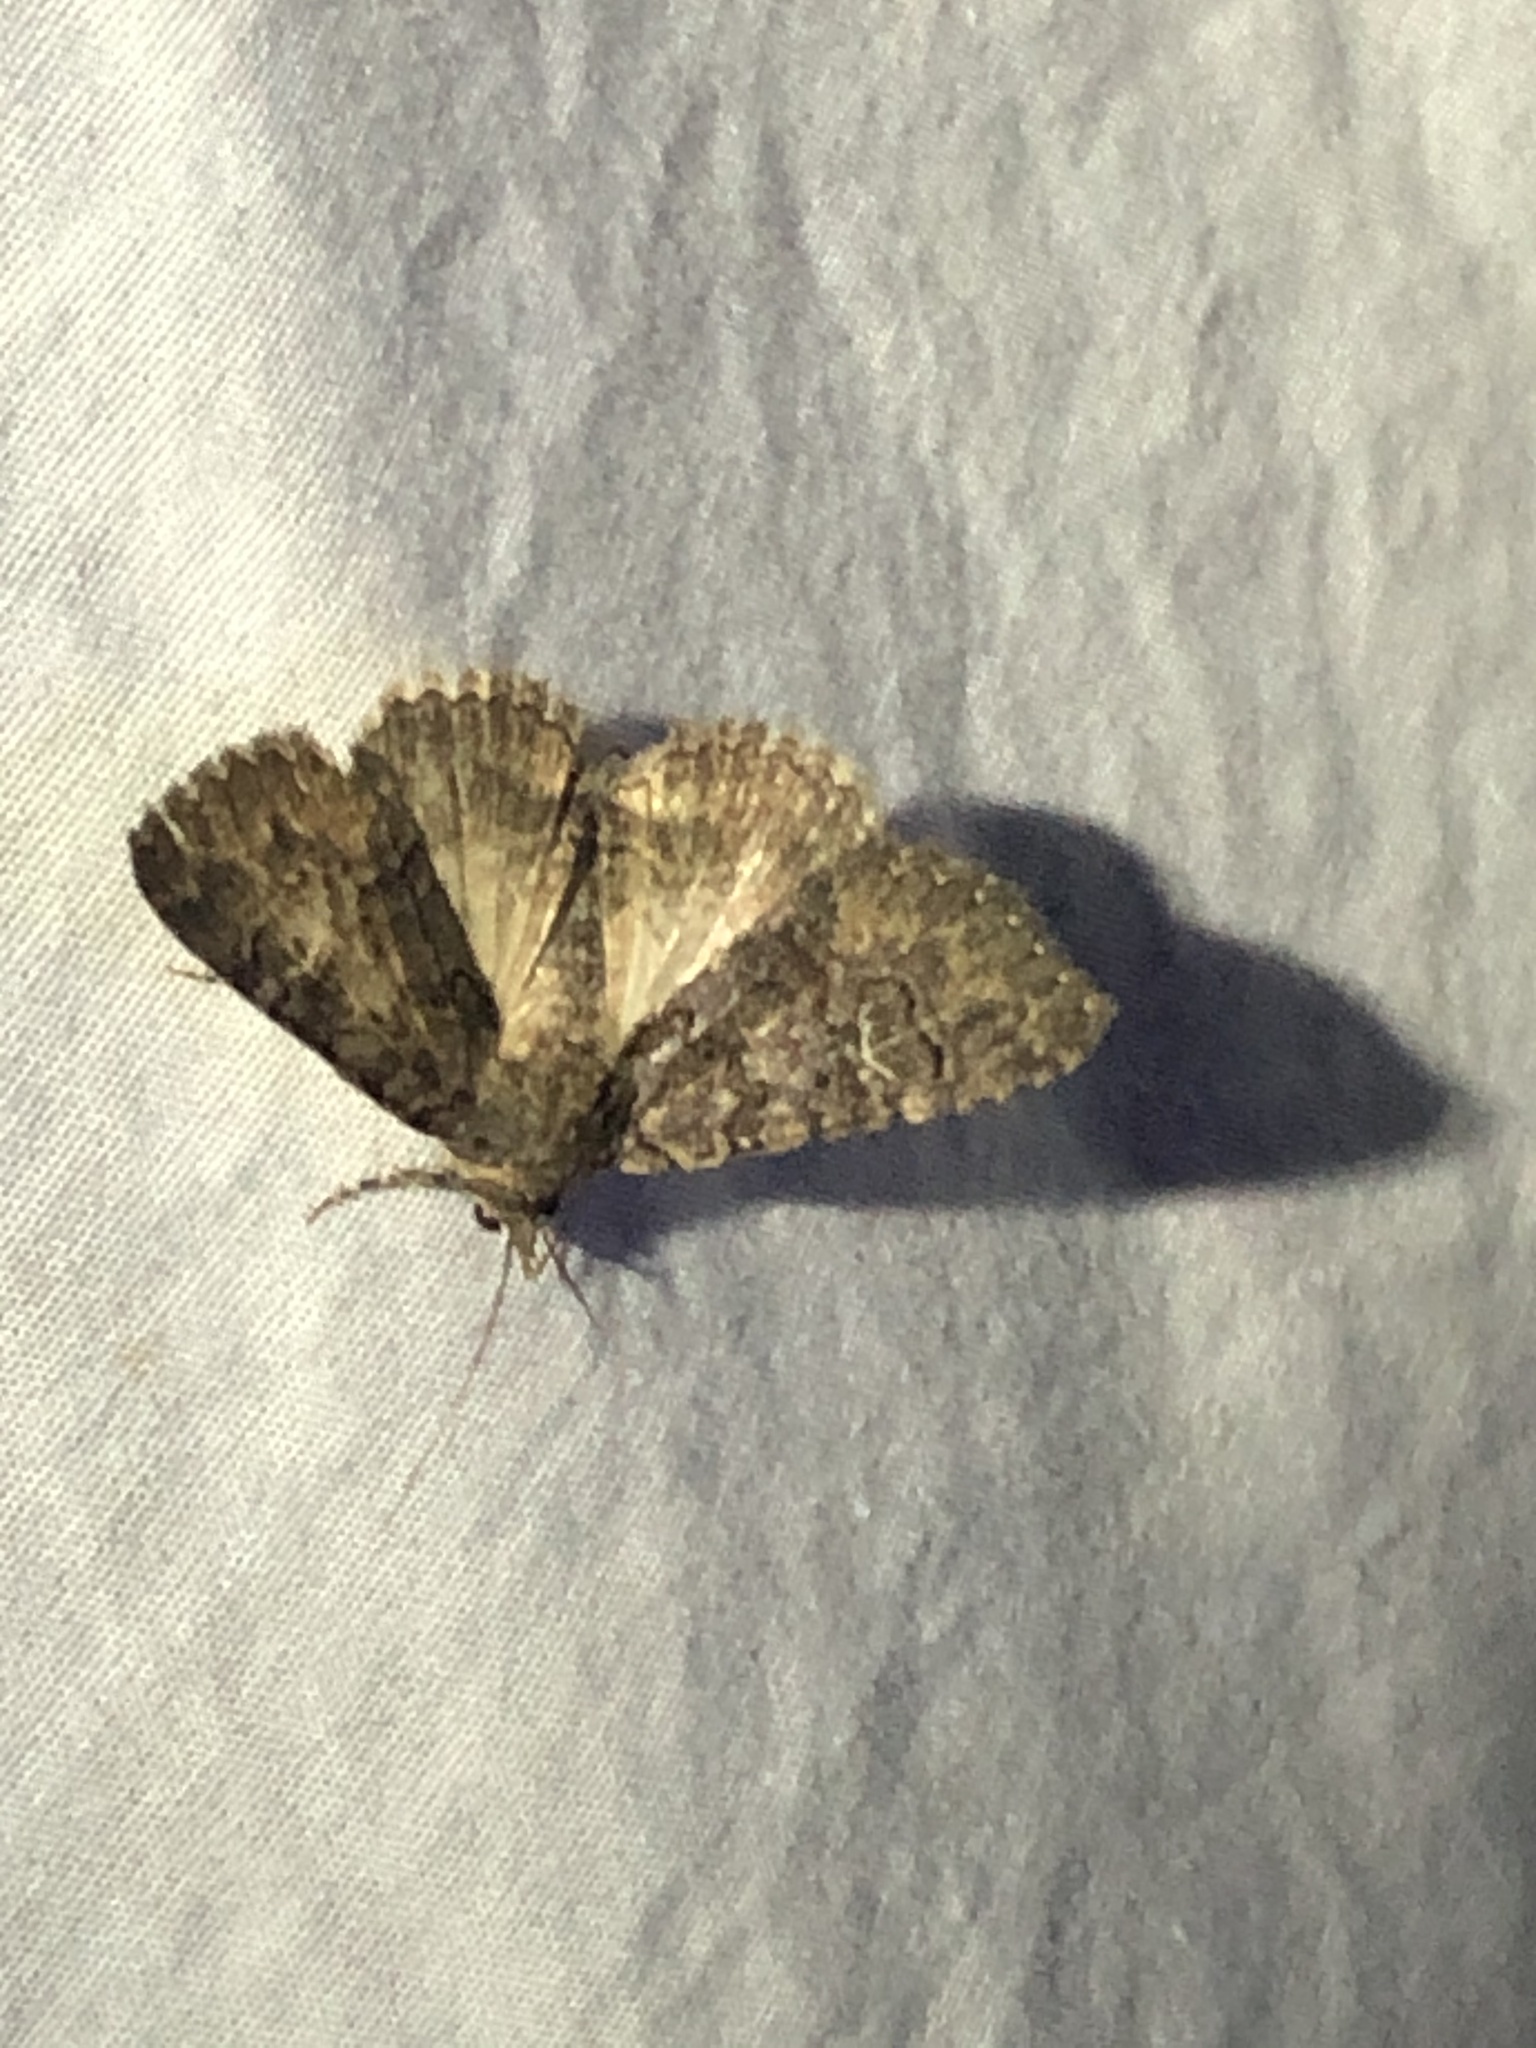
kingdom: Animalia
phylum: Arthropoda
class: Insecta
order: Lepidoptera
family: Erebidae
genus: Elousa
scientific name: Elousa mima
